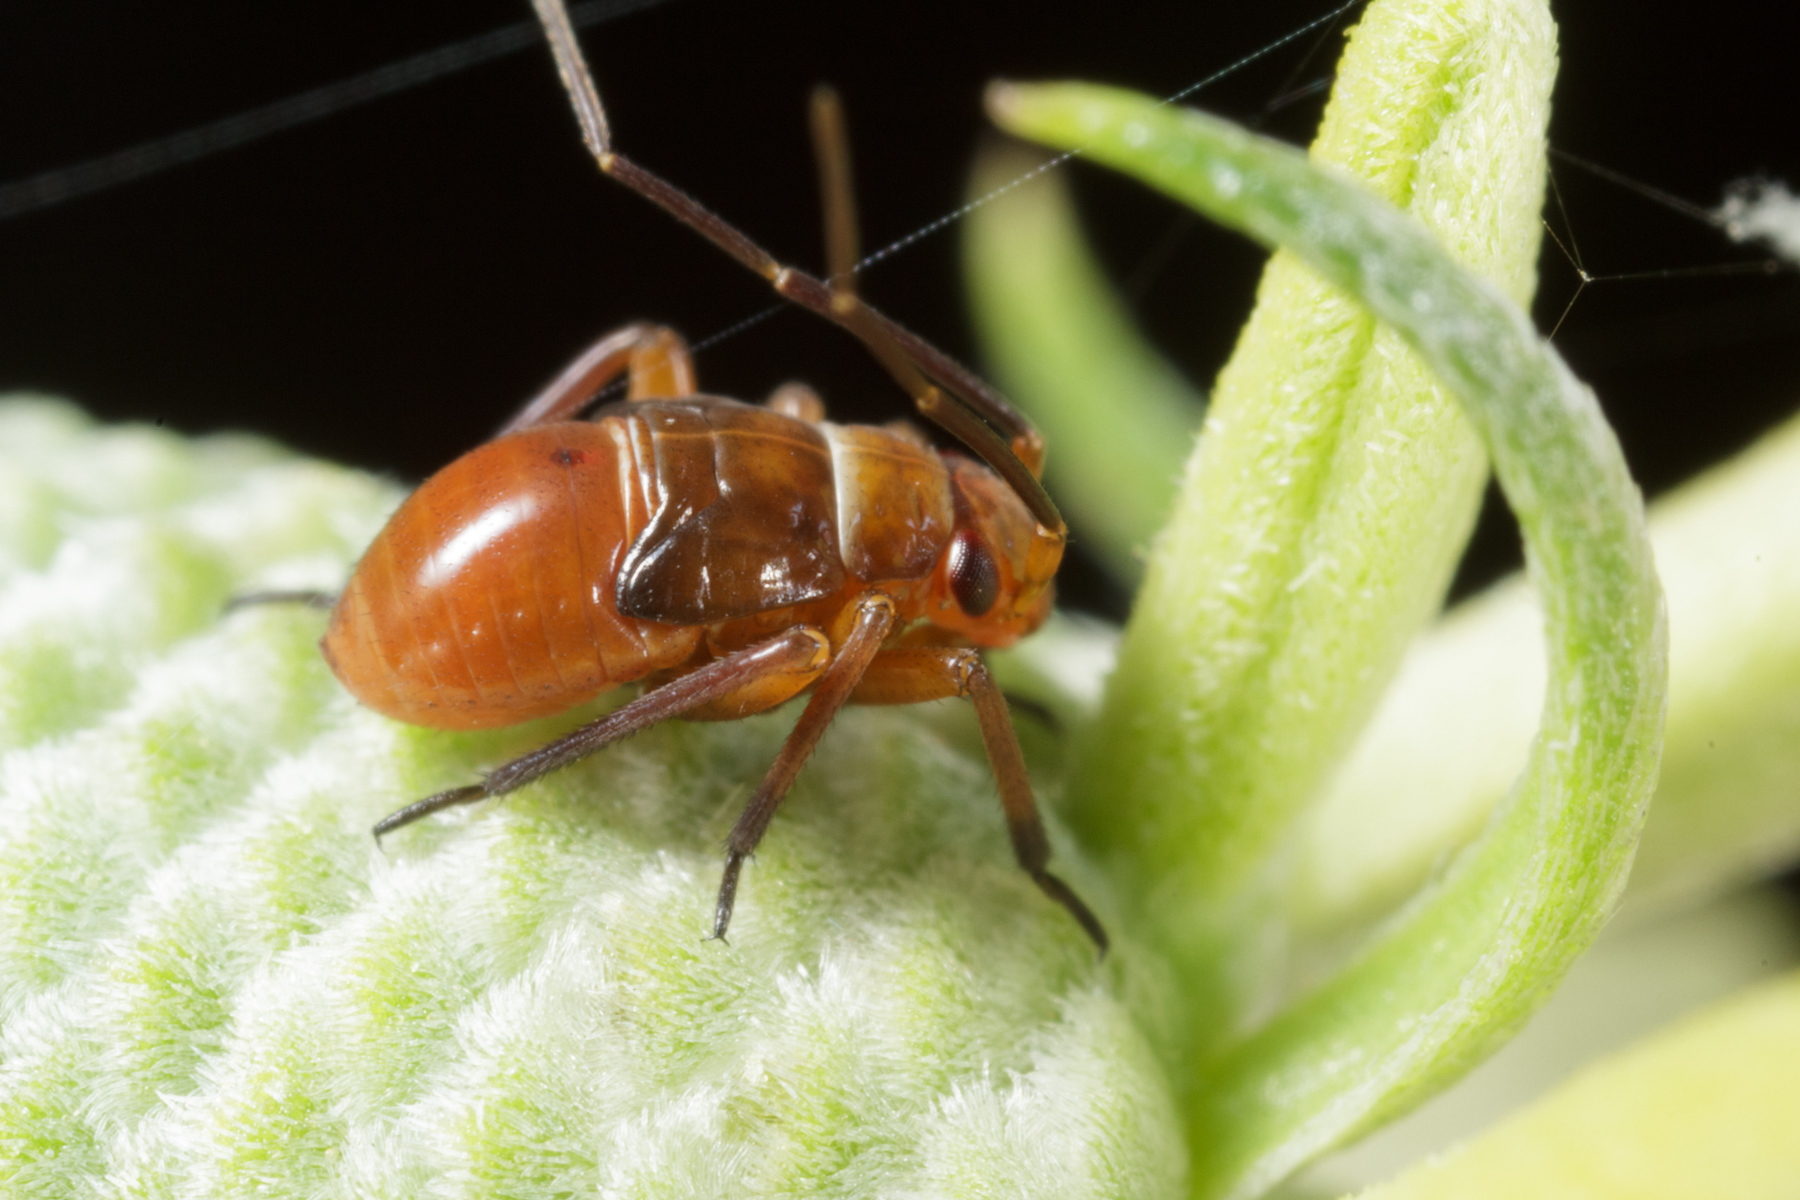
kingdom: Animalia
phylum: Arthropoda
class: Insecta
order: Hemiptera
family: Miridae
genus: Calocoris
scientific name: Calocoris barberi
